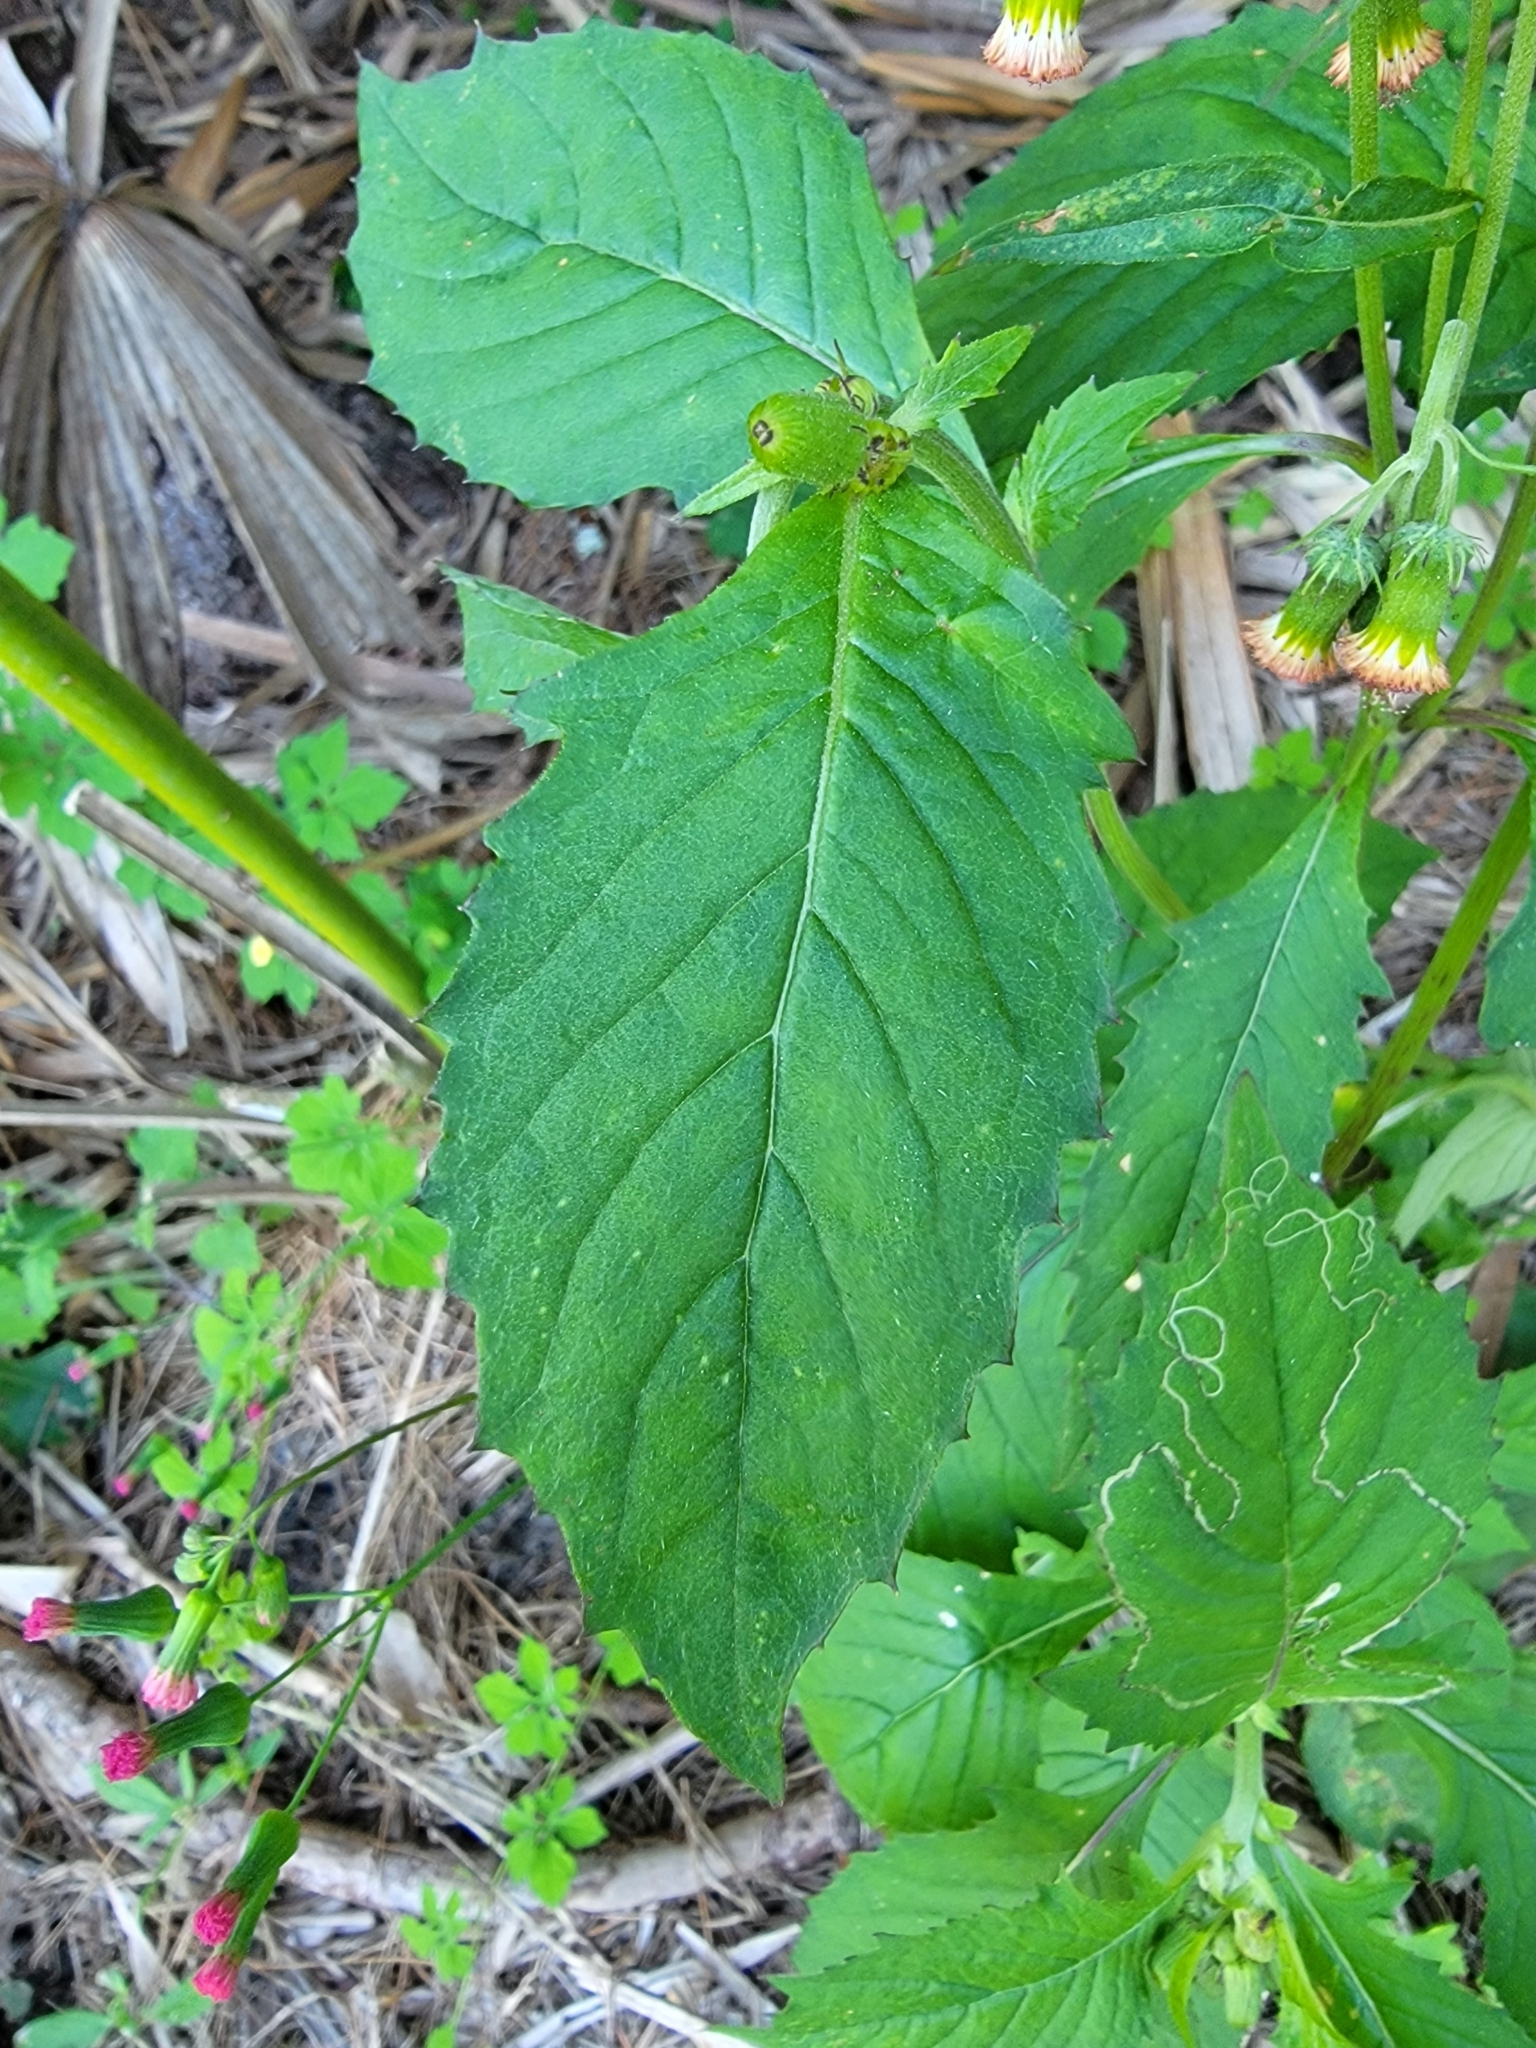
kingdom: Plantae
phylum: Tracheophyta
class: Magnoliopsida
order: Asterales
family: Asteraceae
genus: Crassocephalum
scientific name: Crassocephalum crepidioides
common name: Redflower ragleaf
